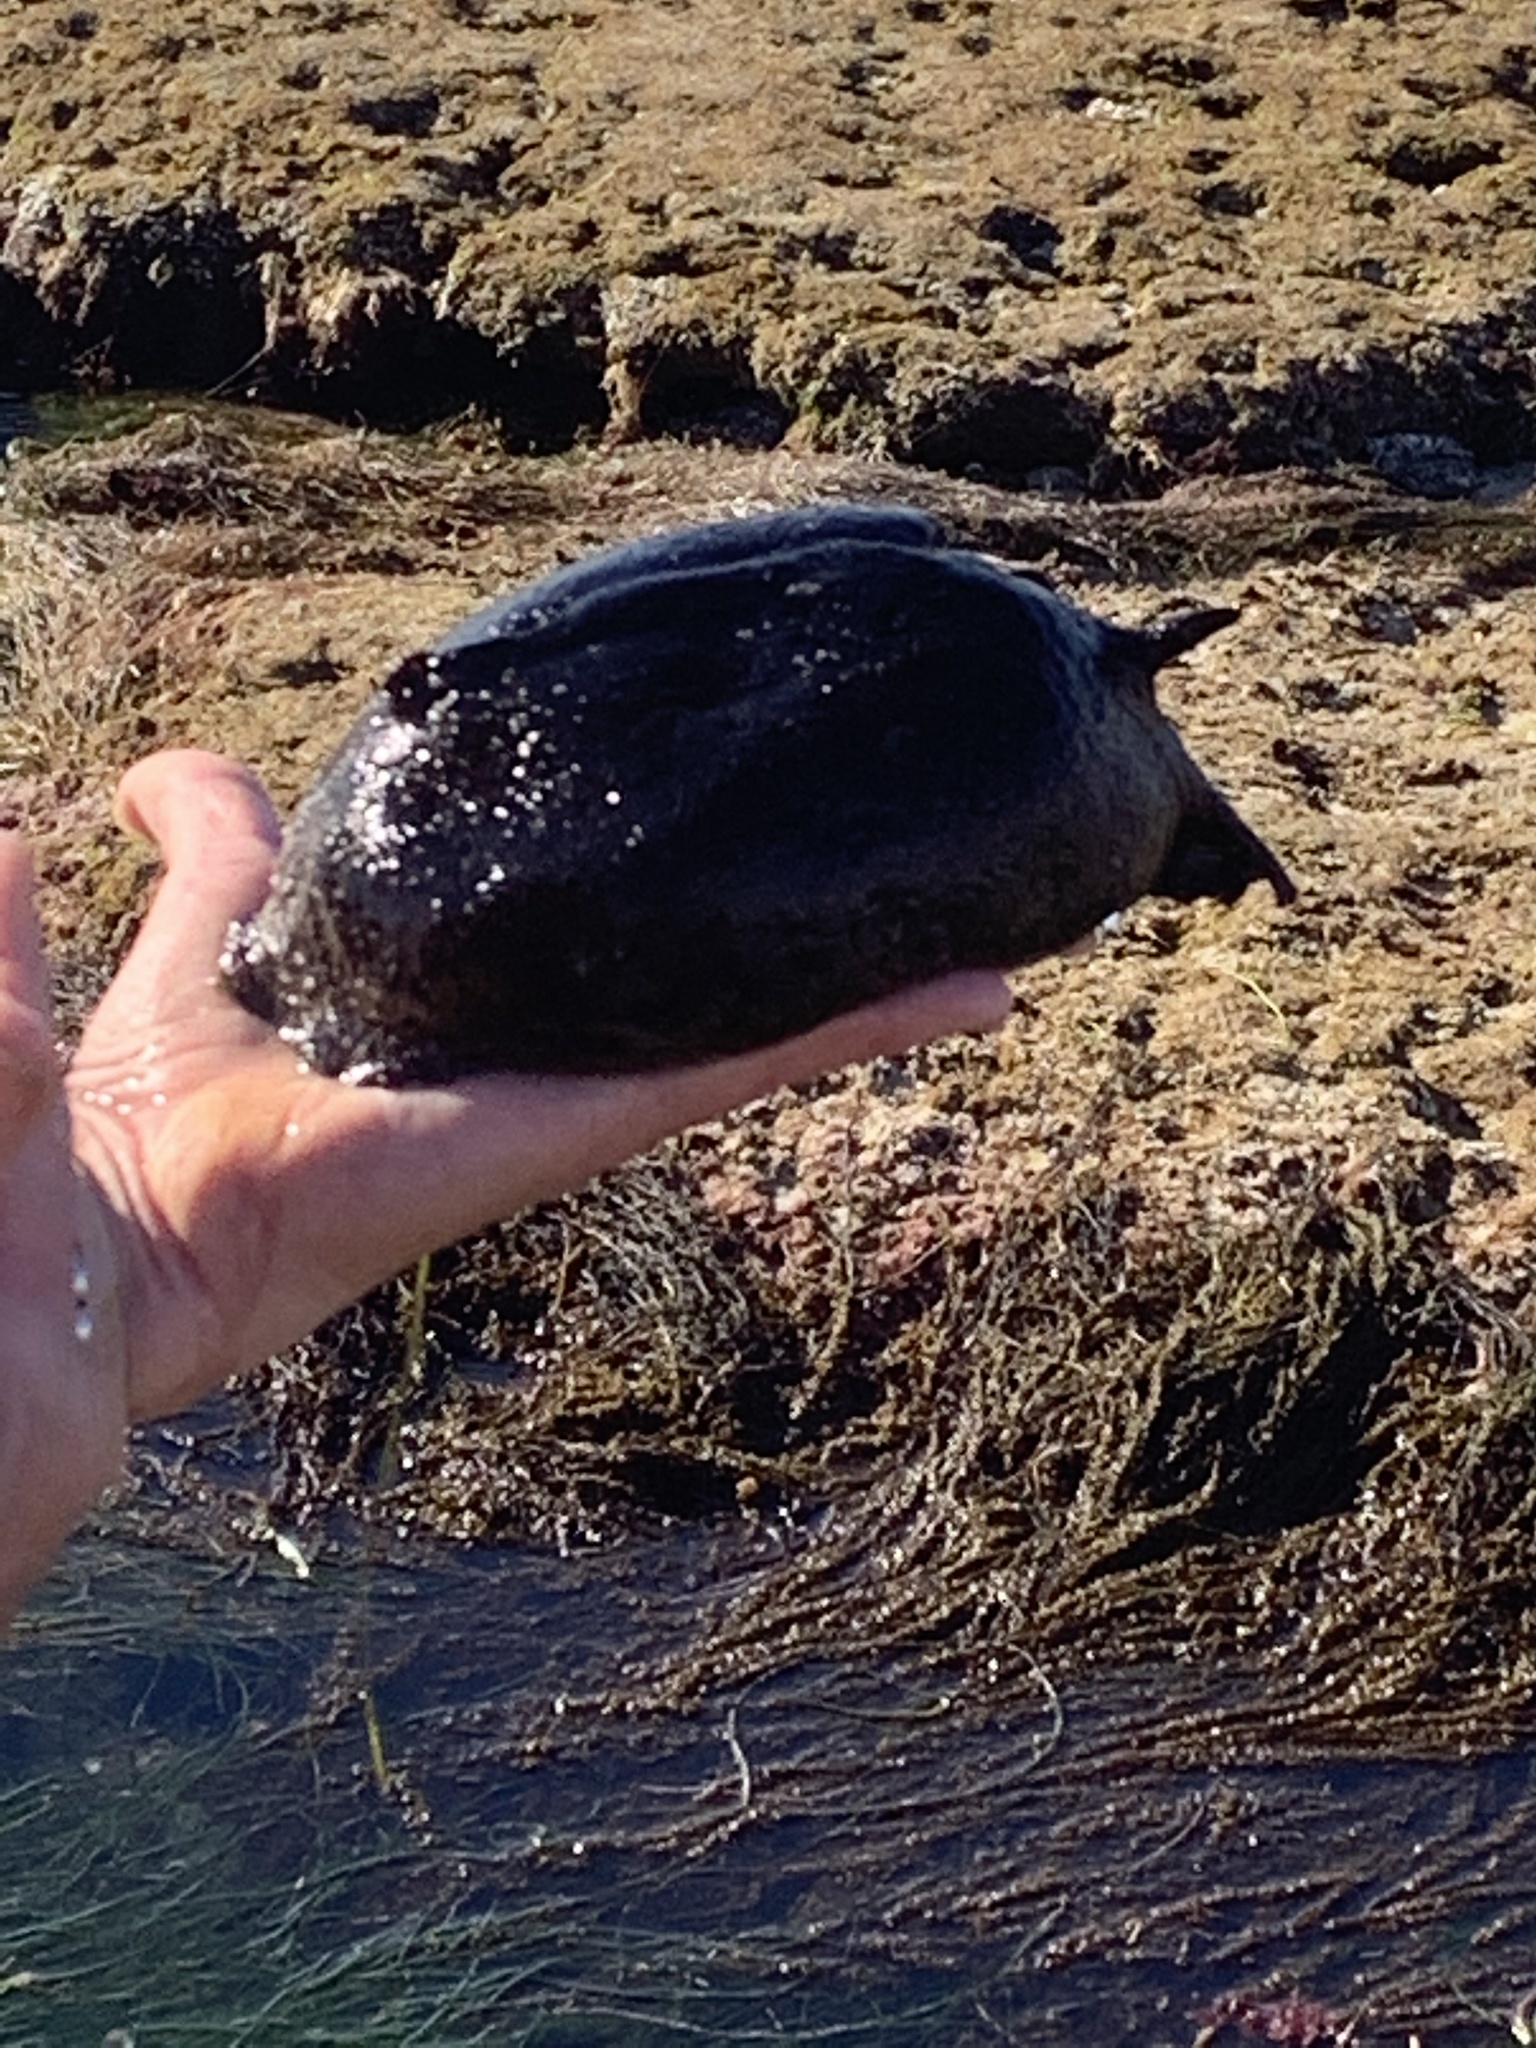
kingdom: Animalia
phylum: Mollusca
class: Gastropoda
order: Aplysiida
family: Aplysiidae
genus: Aplysia
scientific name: Aplysia vaccaria
